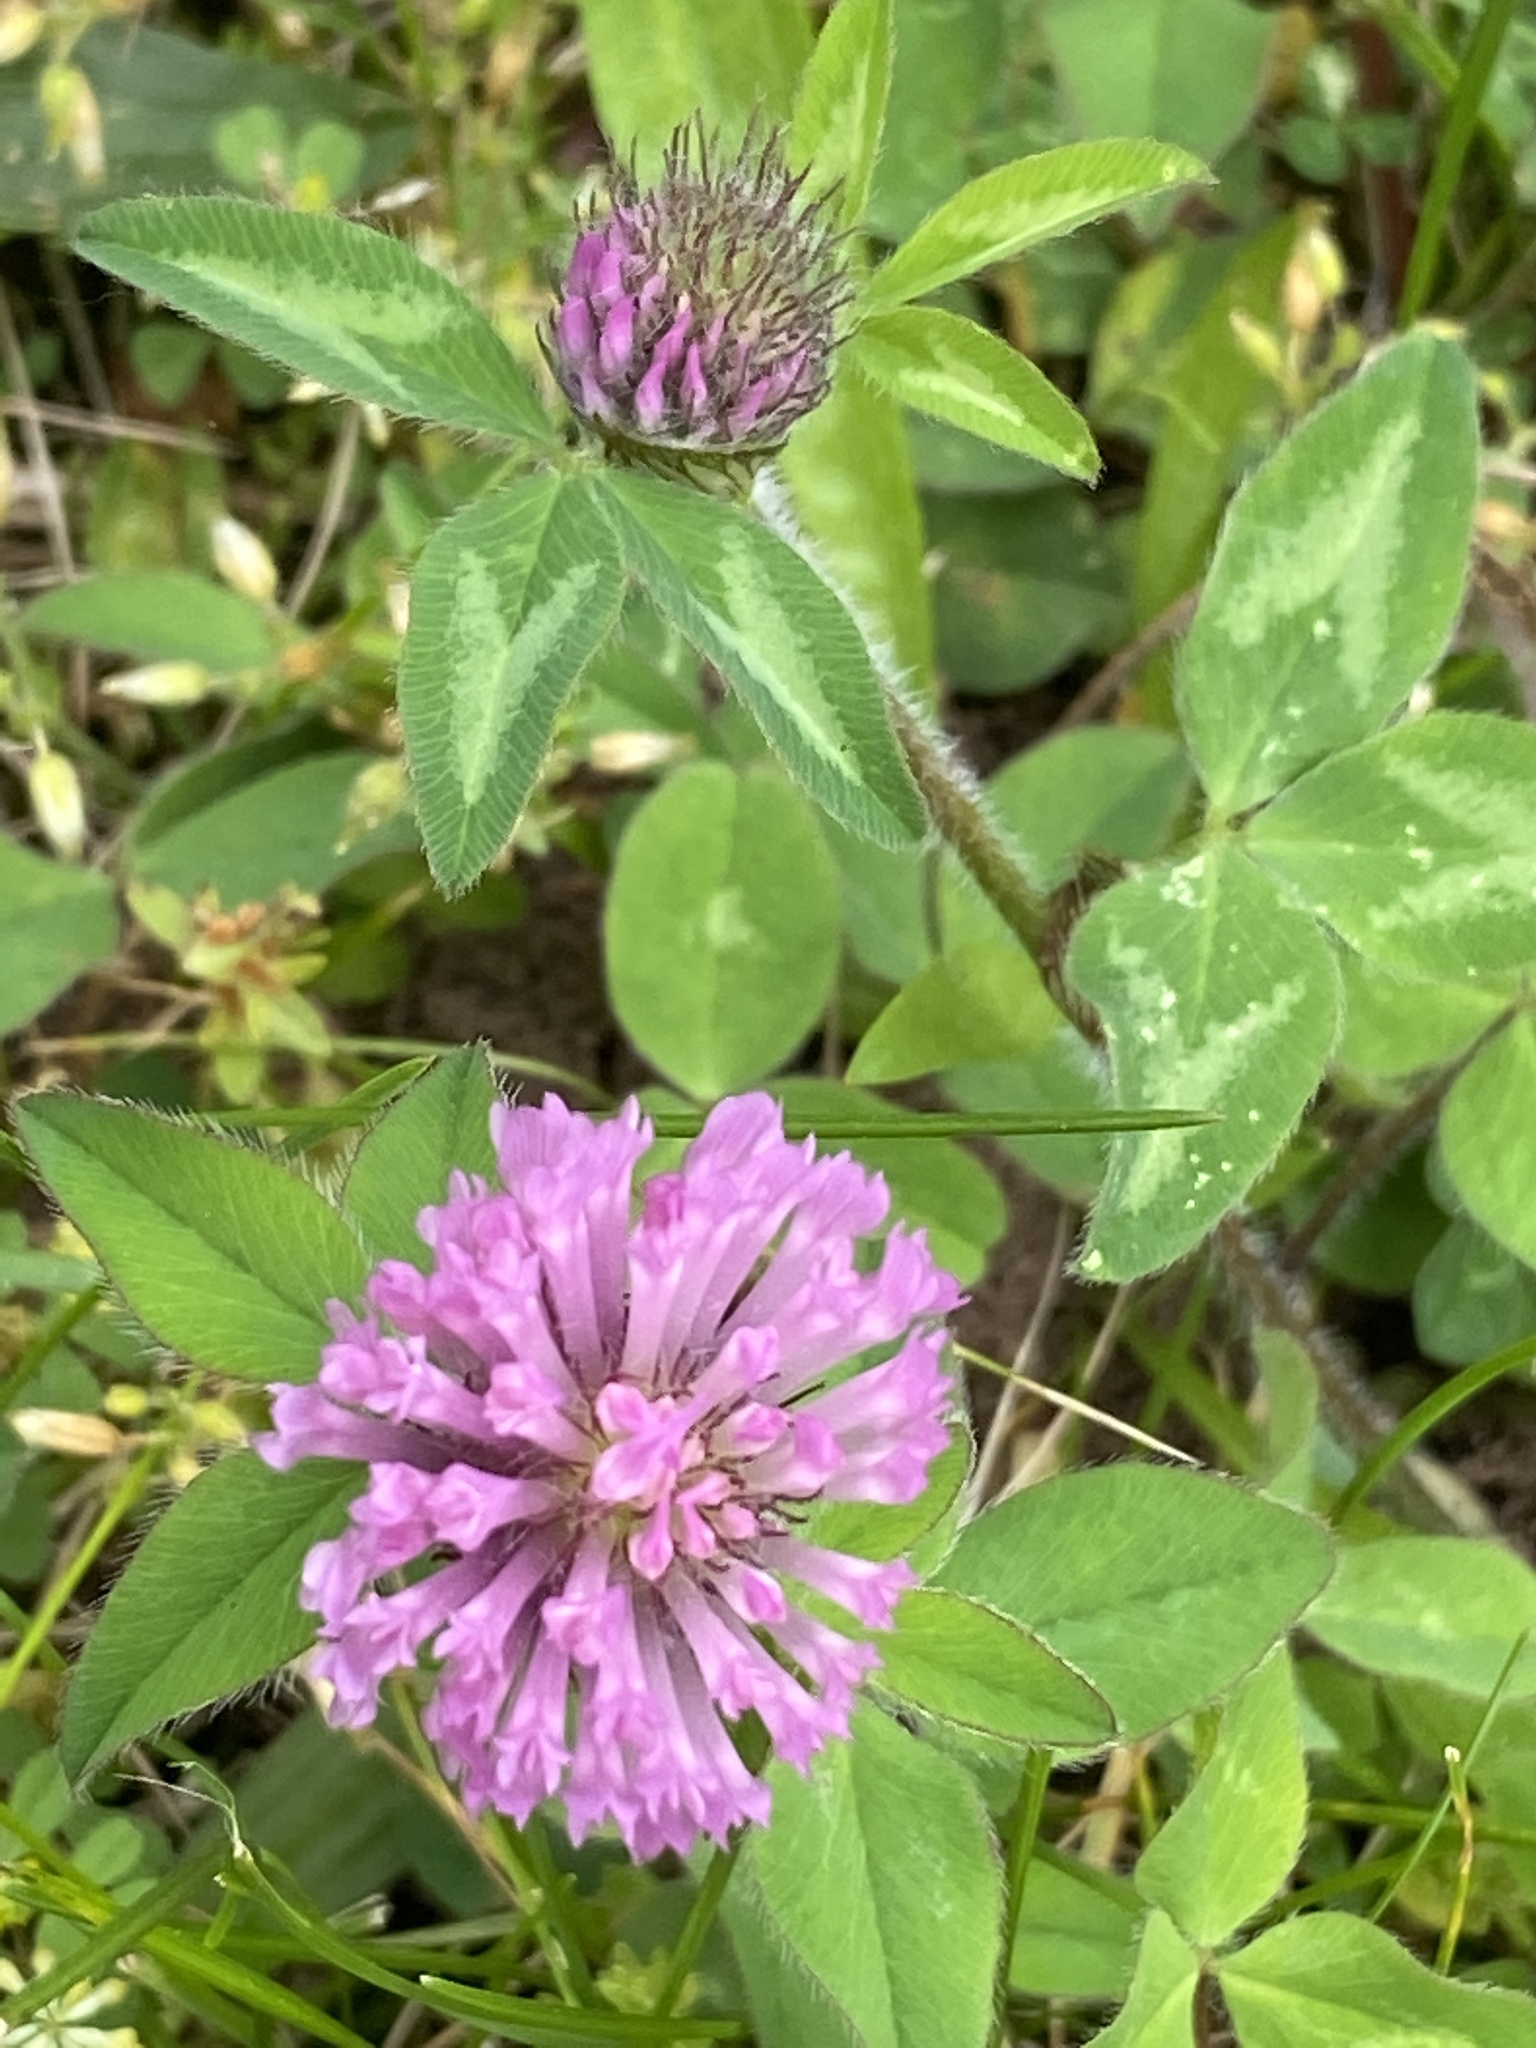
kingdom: Plantae
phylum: Tracheophyta
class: Magnoliopsida
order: Fabales
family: Fabaceae
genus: Trifolium
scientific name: Trifolium pratense
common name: Red clover
